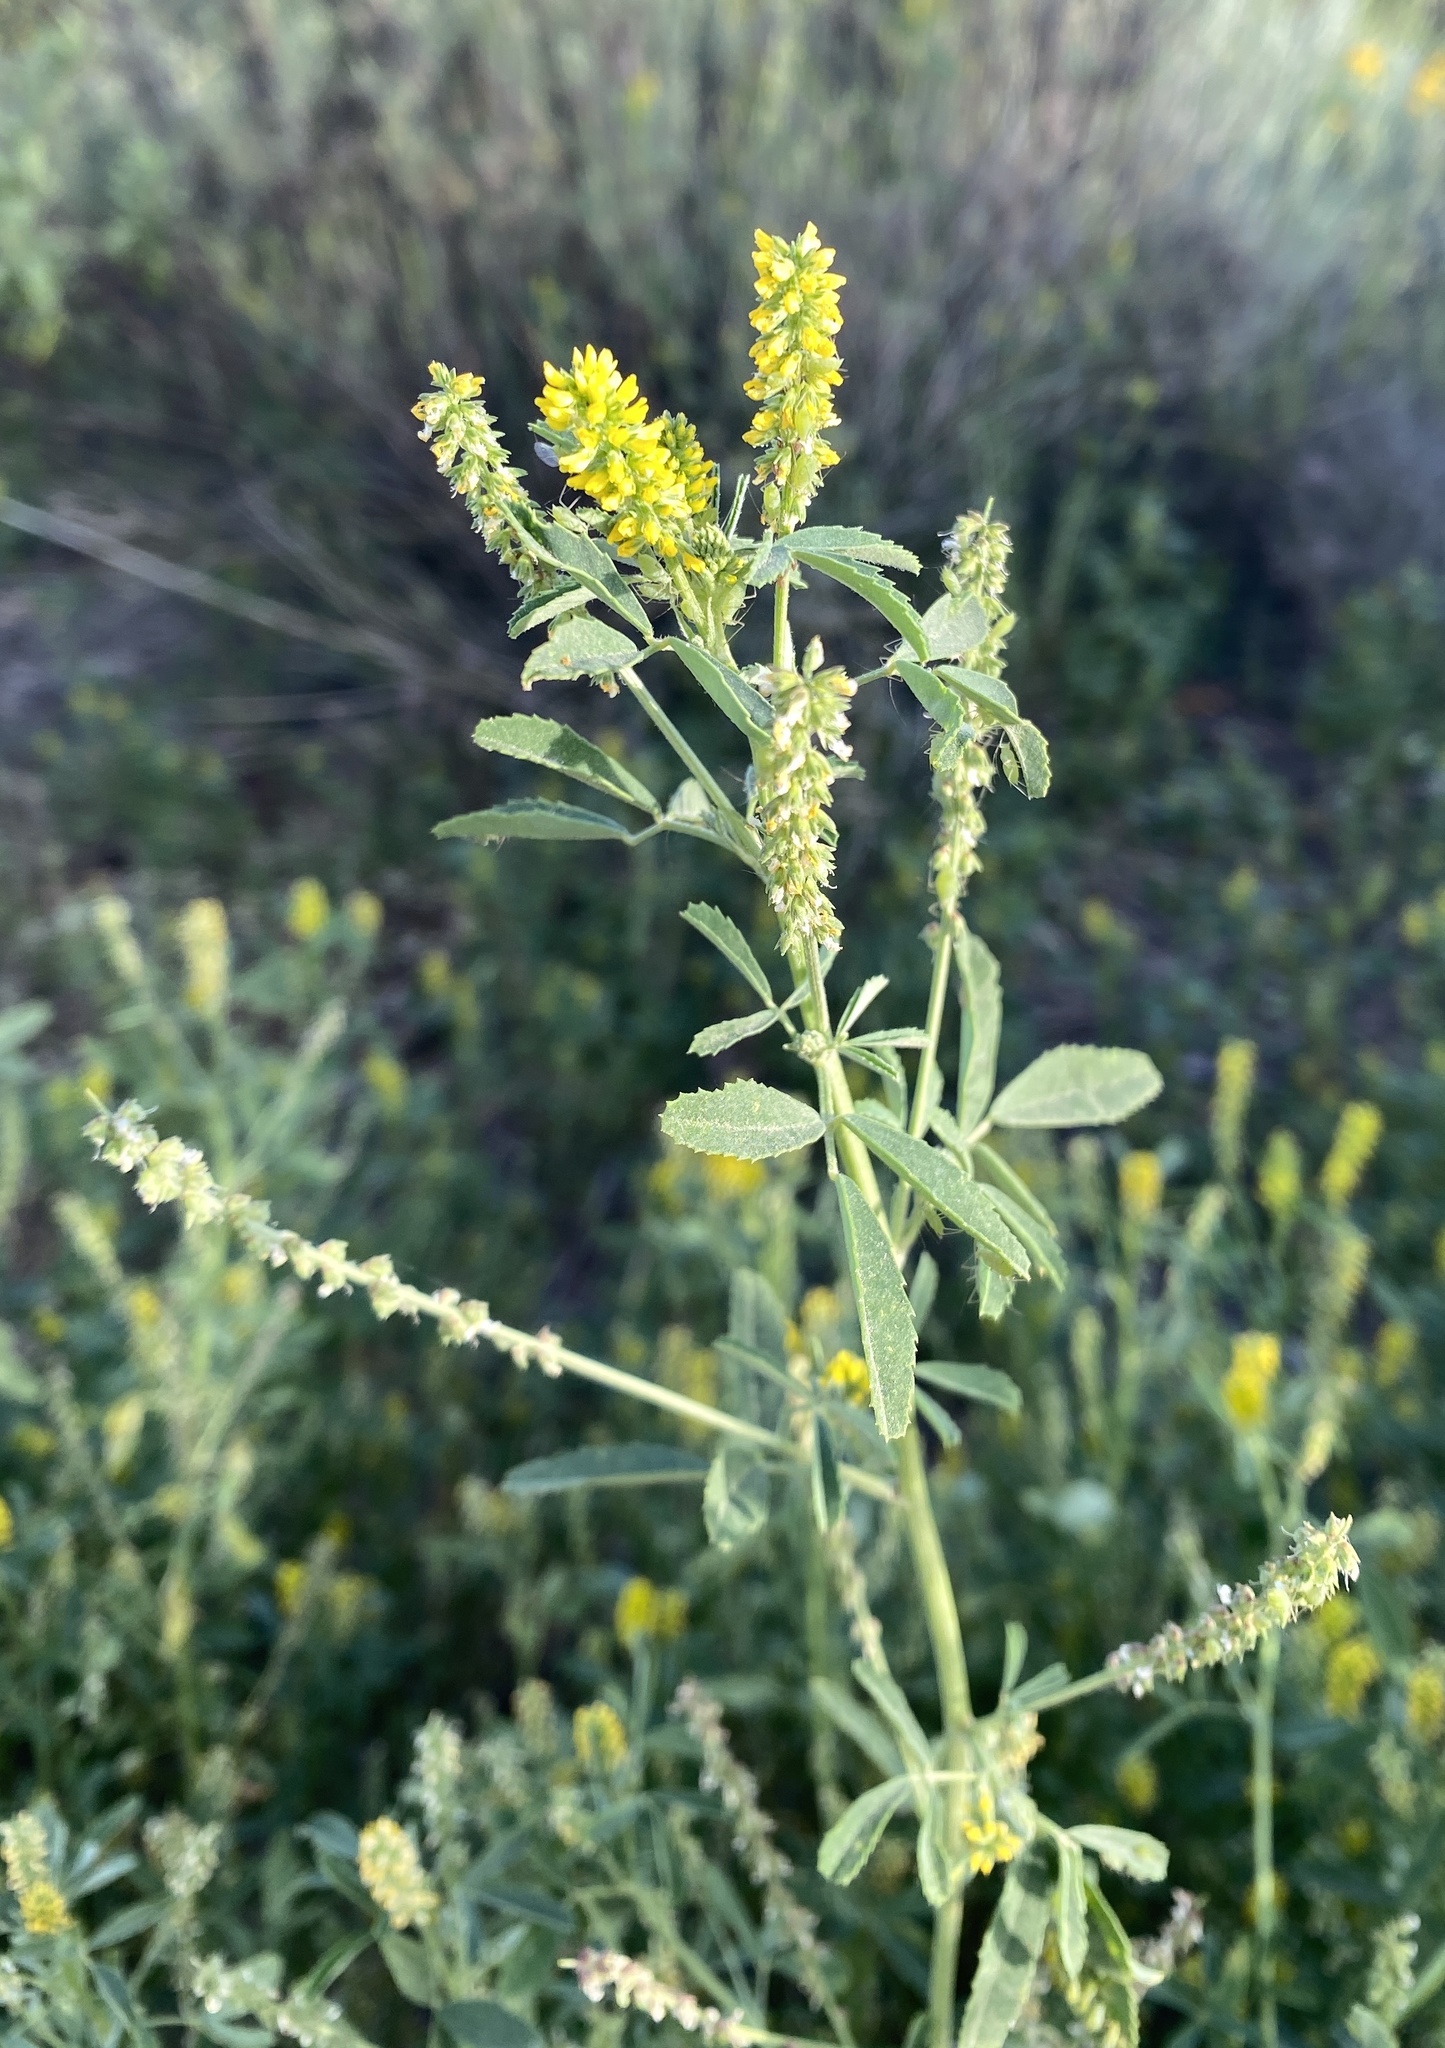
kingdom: Plantae
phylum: Tracheophyta
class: Magnoliopsida
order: Fabales
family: Fabaceae
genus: Melilotus
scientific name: Melilotus indicus
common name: Small melilot
